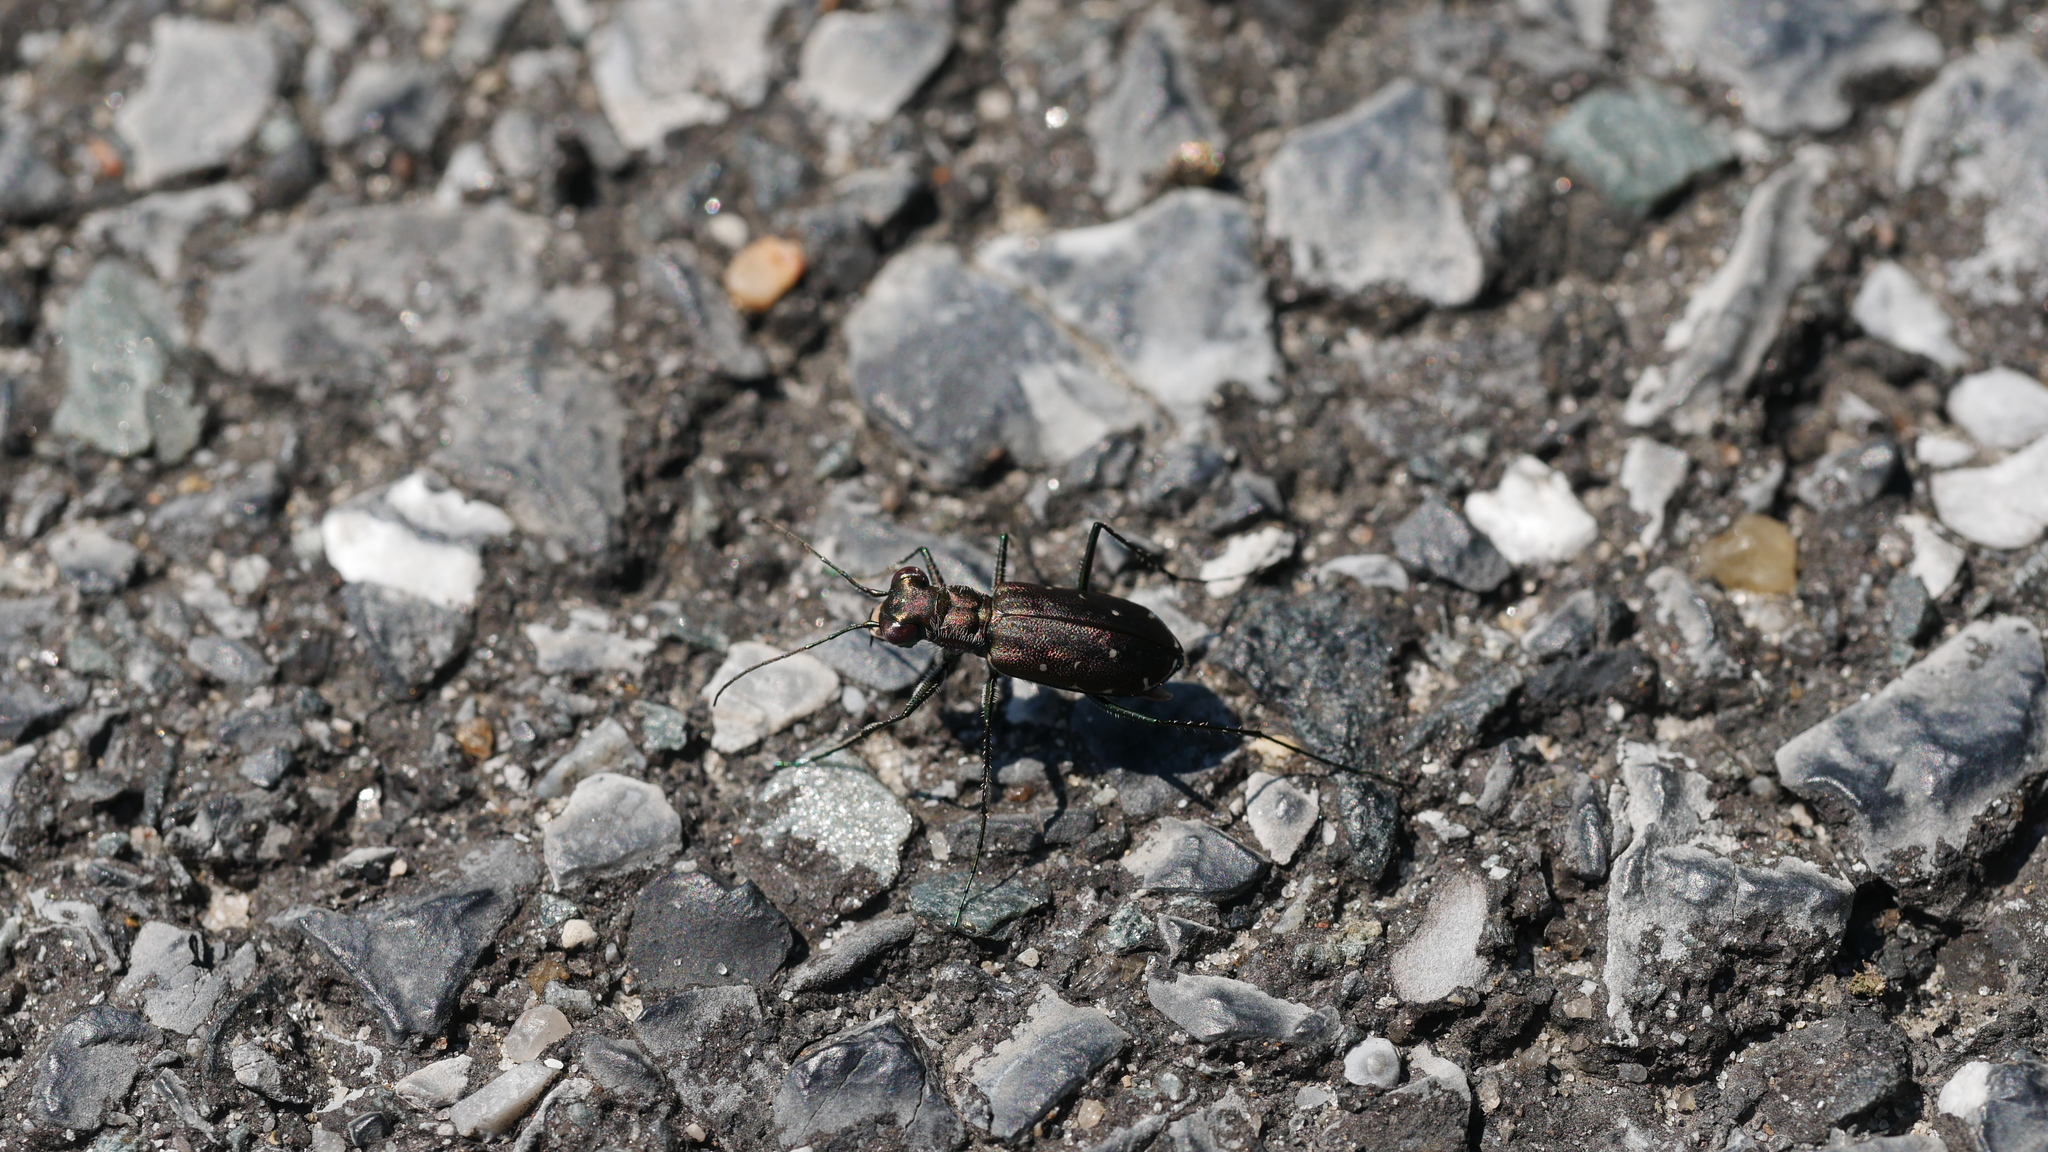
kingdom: Animalia
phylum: Arthropoda
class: Insecta
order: Coleoptera
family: Carabidae
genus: Cicindela
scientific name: Cicindela punctulata
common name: Punctured tiger beetle
